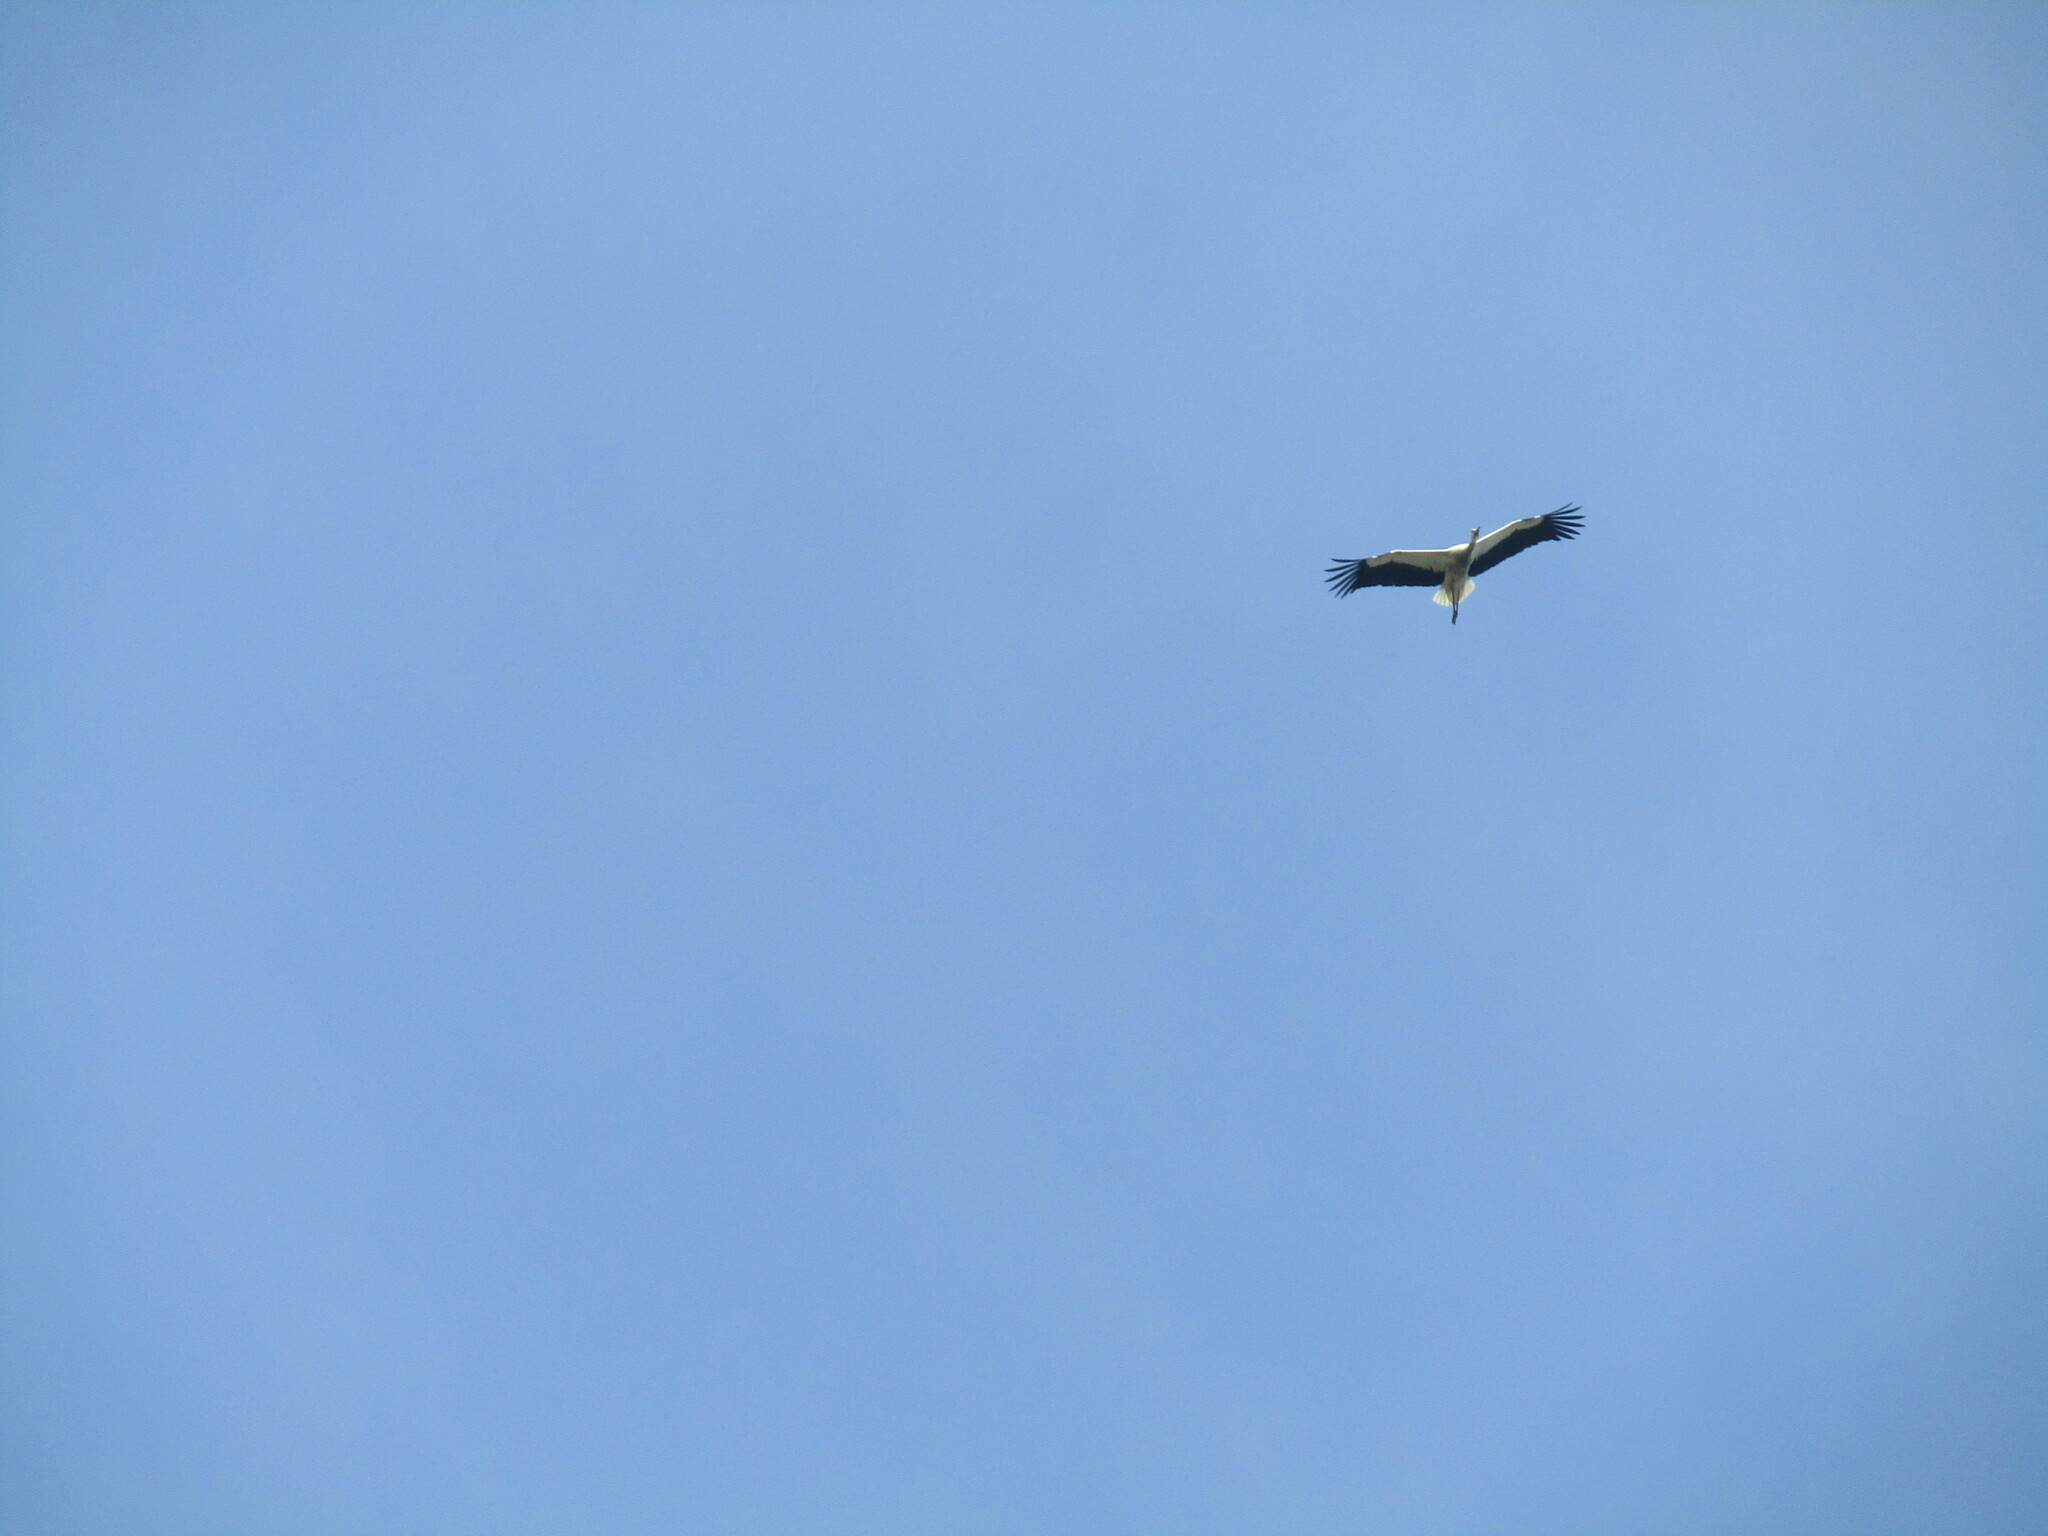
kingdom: Animalia
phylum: Chordata
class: Aves
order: Ciconiiformes
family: Ciconiidae
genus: Ciconia
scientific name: Ciconia ciconia
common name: White stork
